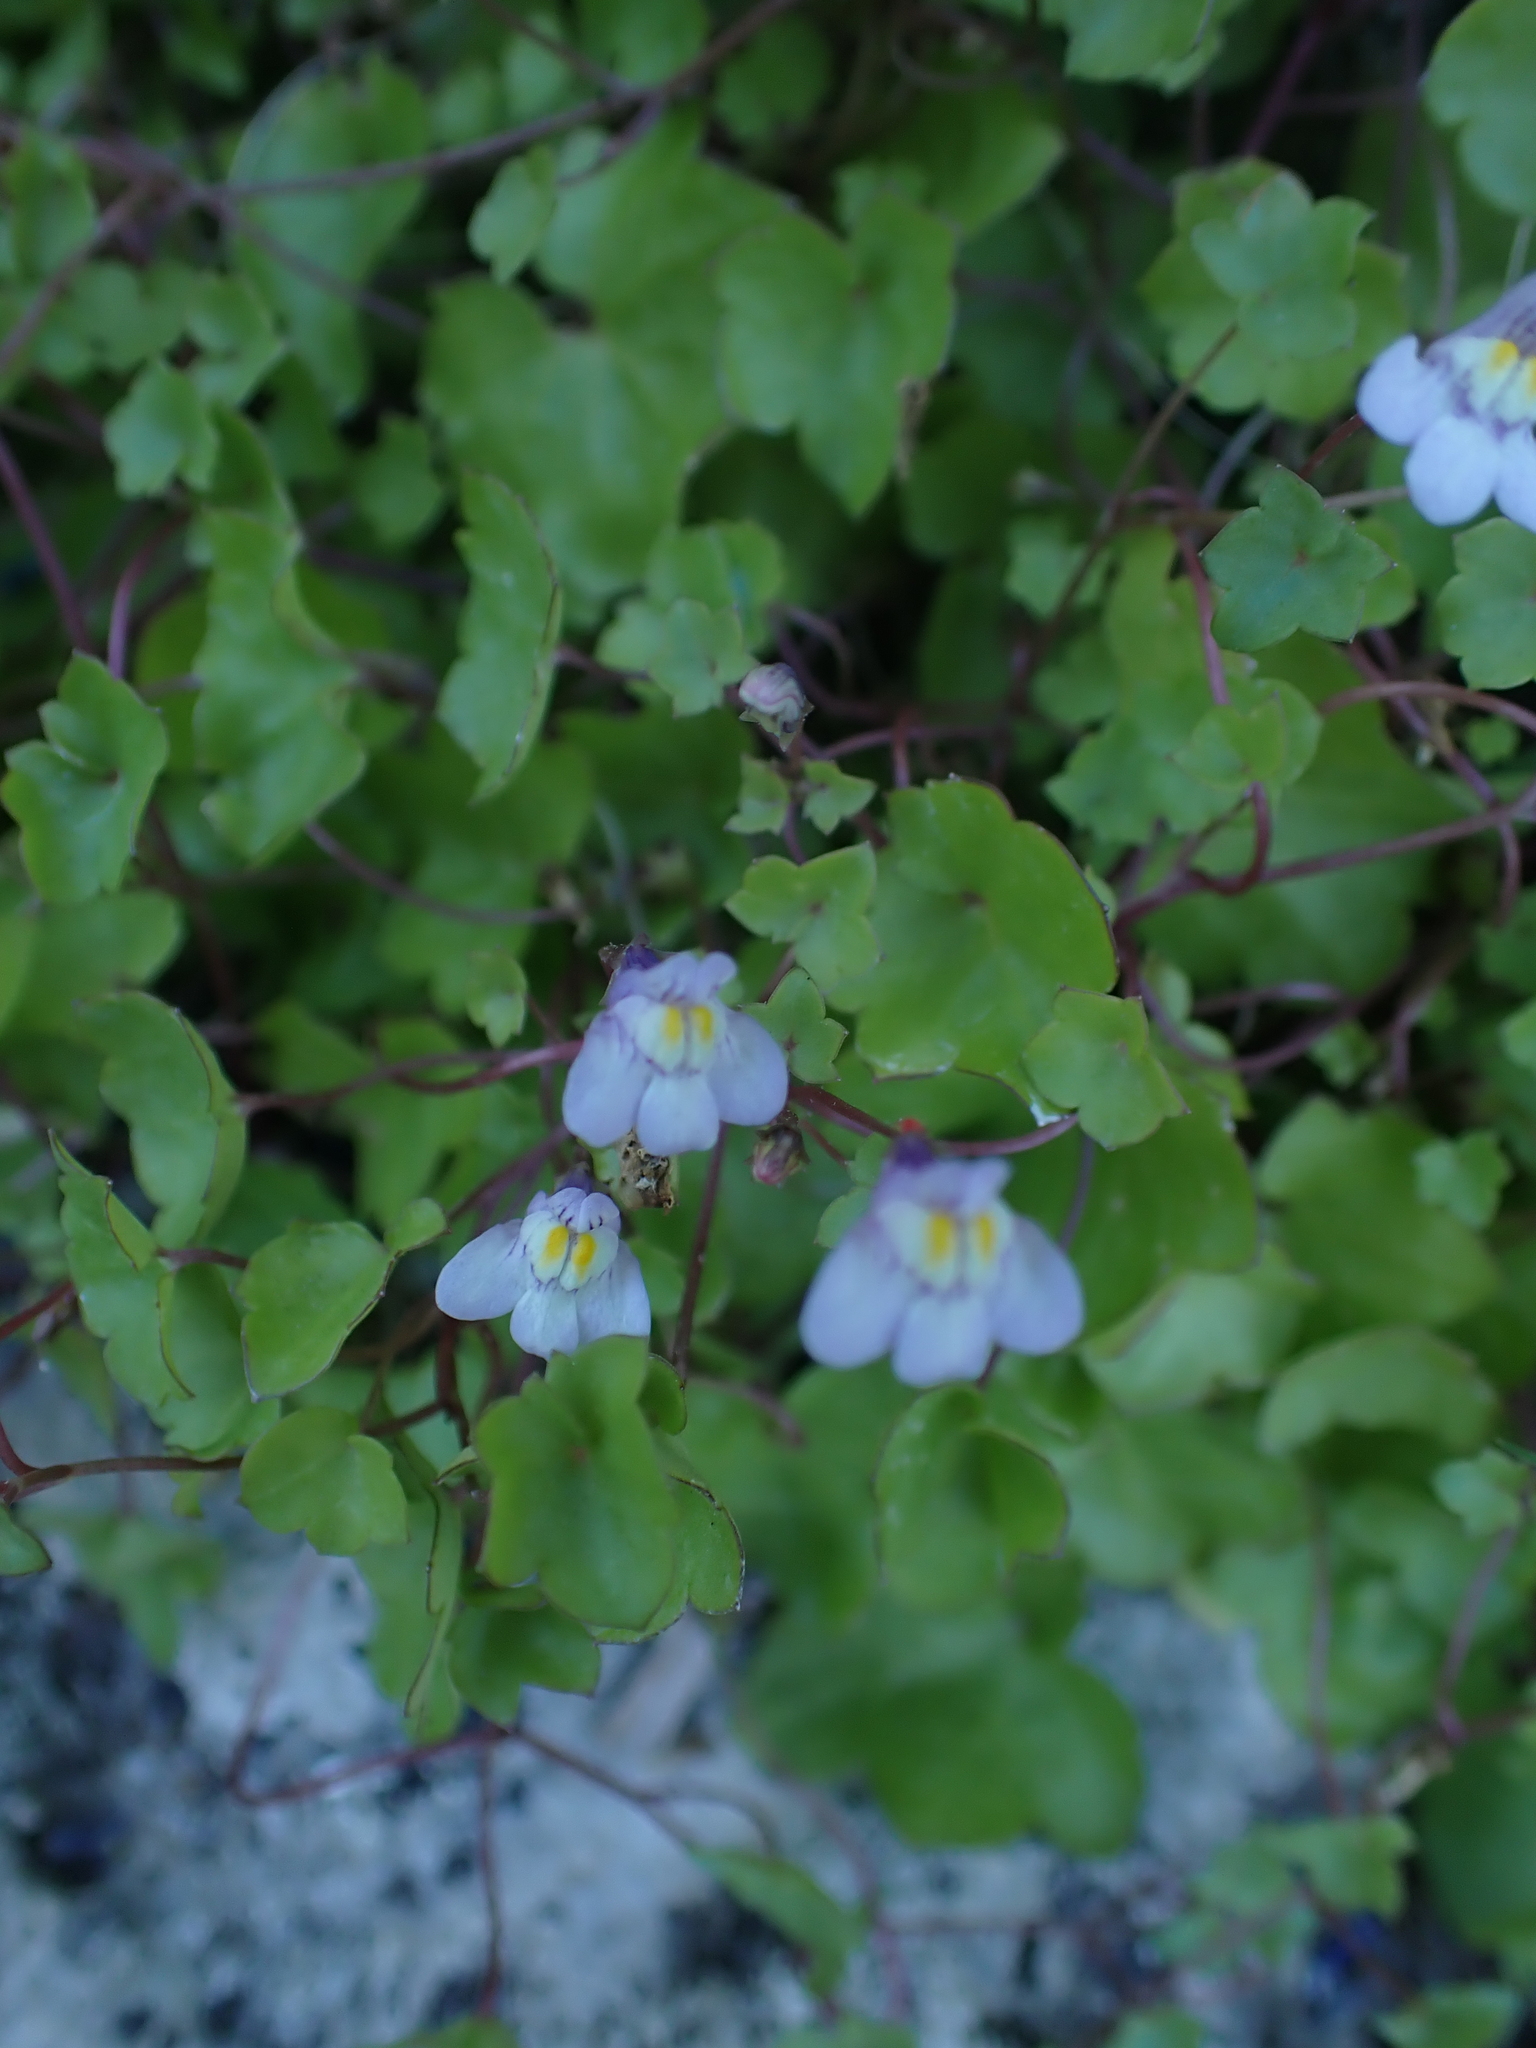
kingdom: Plantae
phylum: Tracheophyta
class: Magnoliopsida
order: Lamiales
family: Plantaginaceae
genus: Cymbalaria
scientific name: Cymbalaria muralis
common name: Ivy-leaved toadflax
